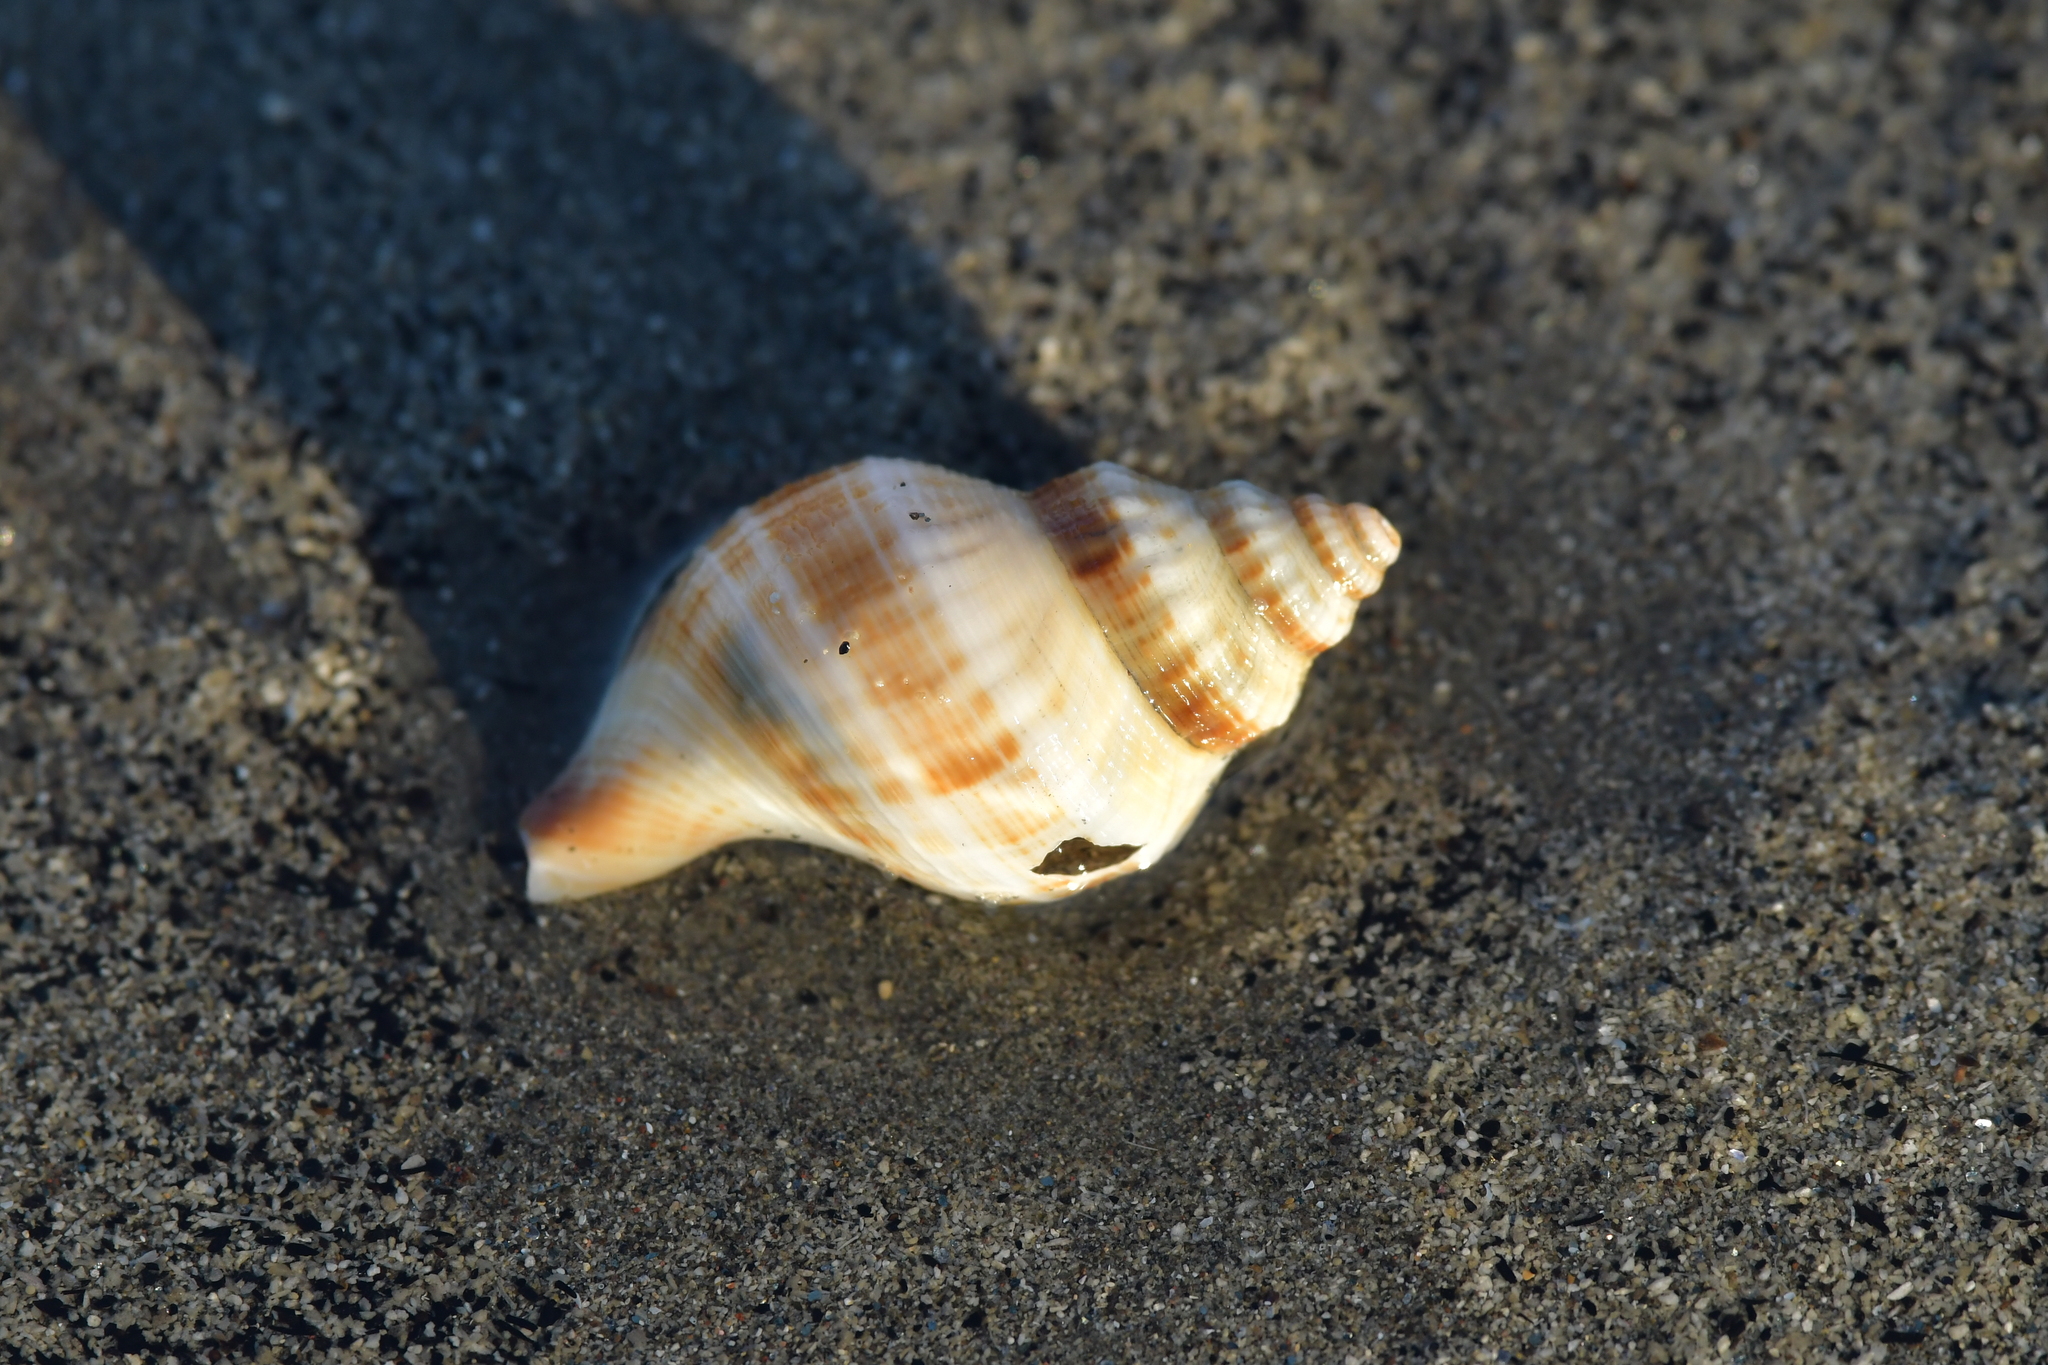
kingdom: Animalia
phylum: Mollusca
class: Gastropoda
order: Neogastropoda
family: Prosiphonidae
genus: Austrofusus
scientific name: Austrofusus glans
